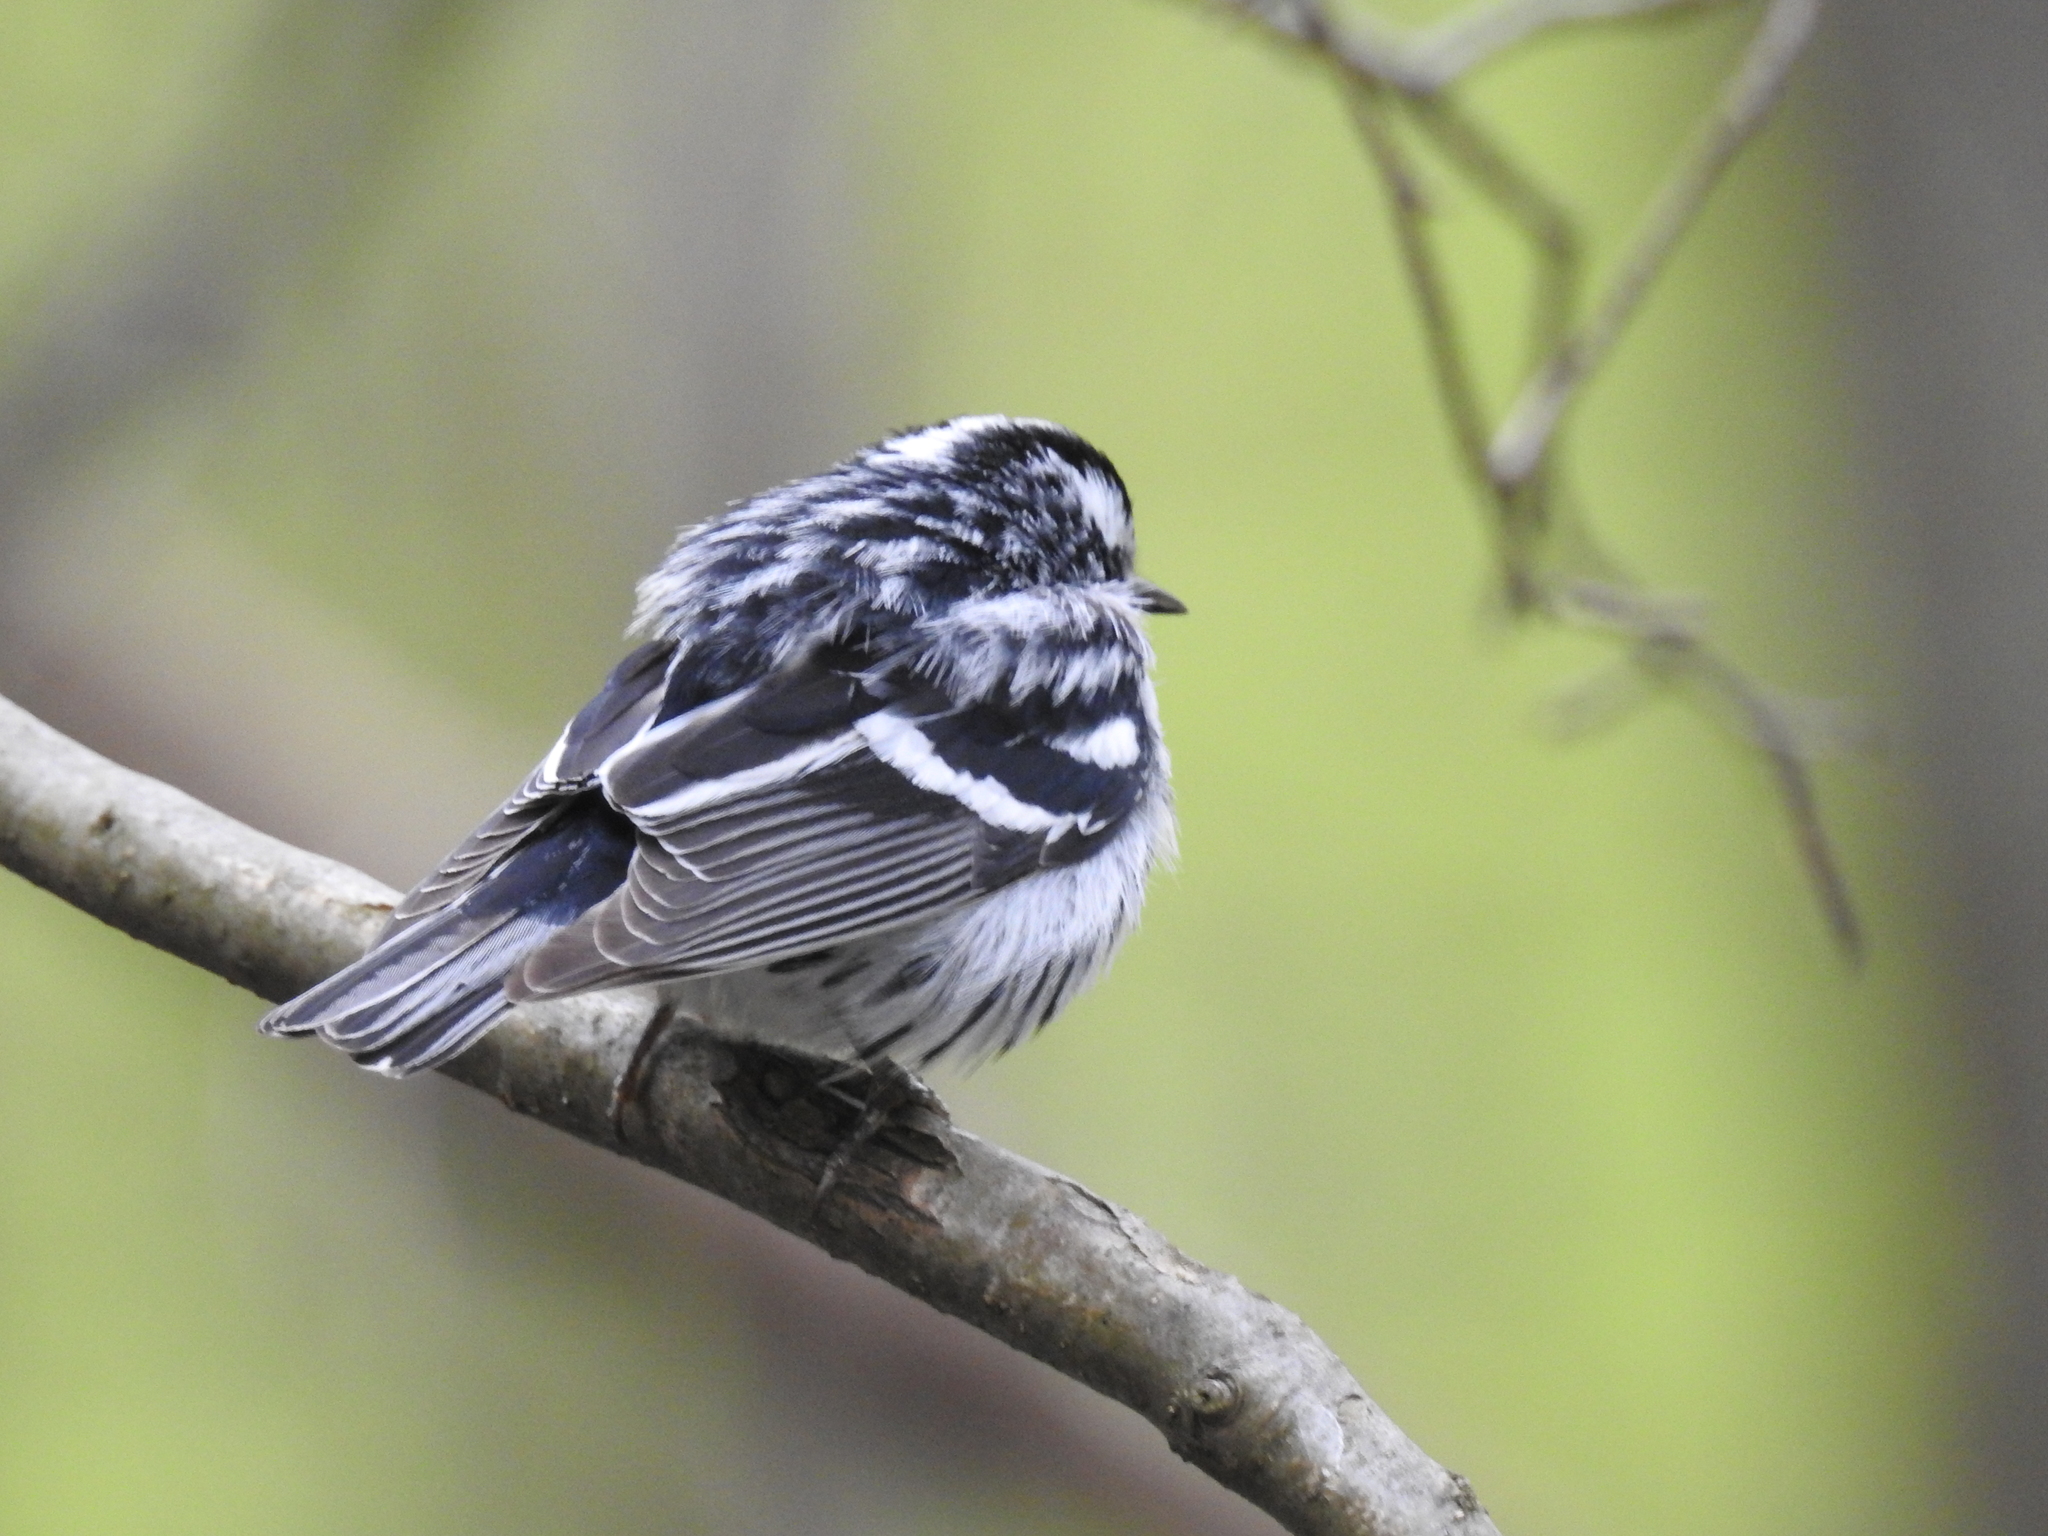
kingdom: Animalia
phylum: Chordata
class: Aves
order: Passeriformes
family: Parulidae
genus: Mniotilta
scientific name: Mniotilta varia
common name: Black-and-white warbler
